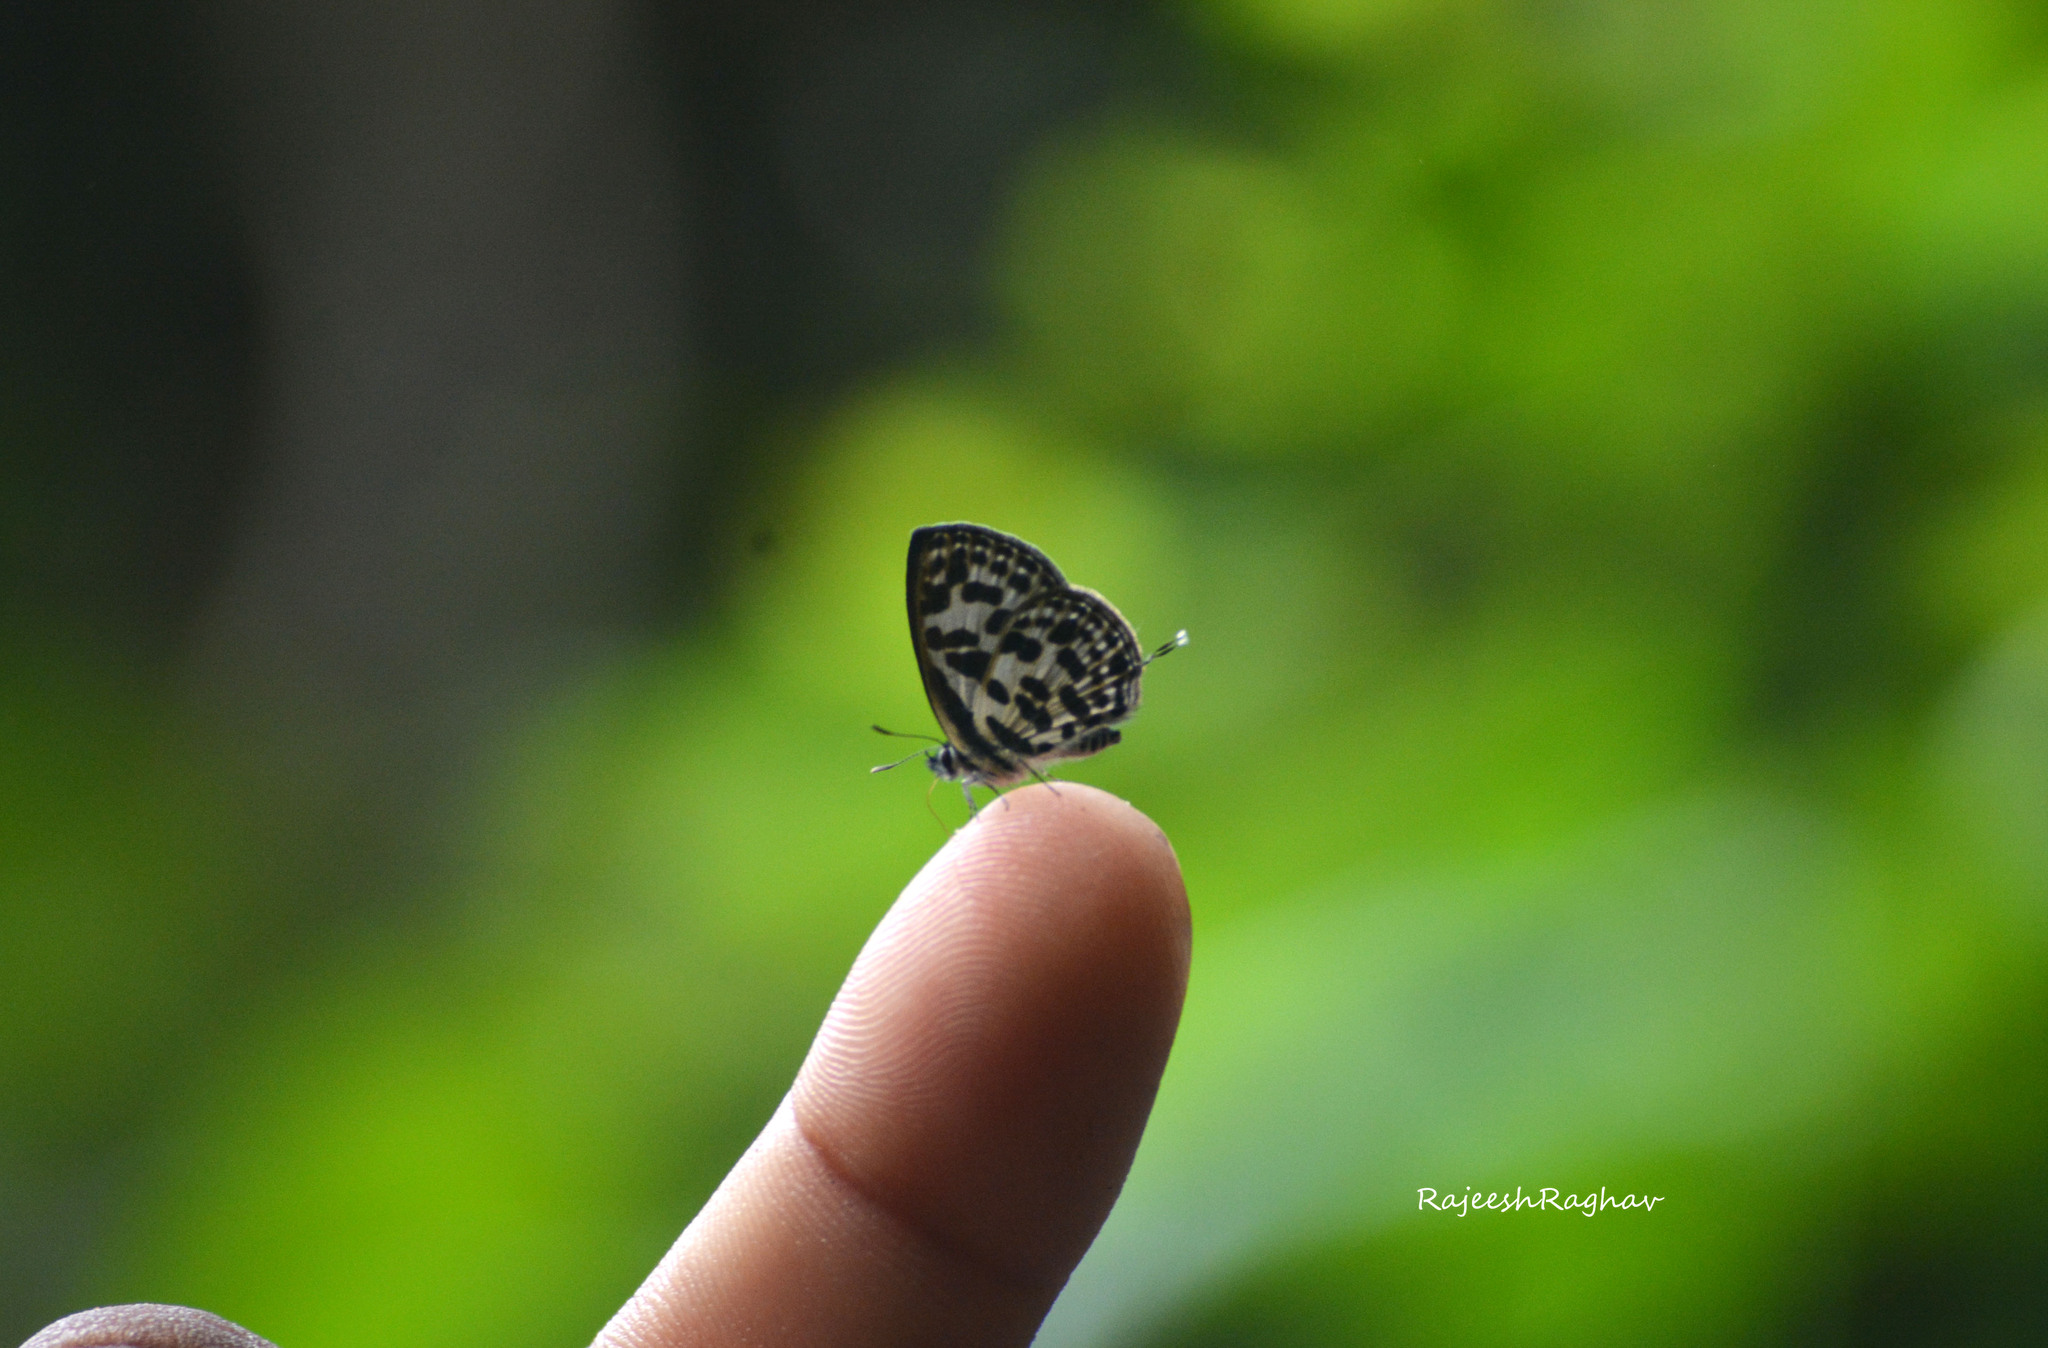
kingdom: Animalia
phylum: Arthropoda
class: Insecta
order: Lepidoptera
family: Lycaenidae
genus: Tarucus
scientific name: Tarucus
